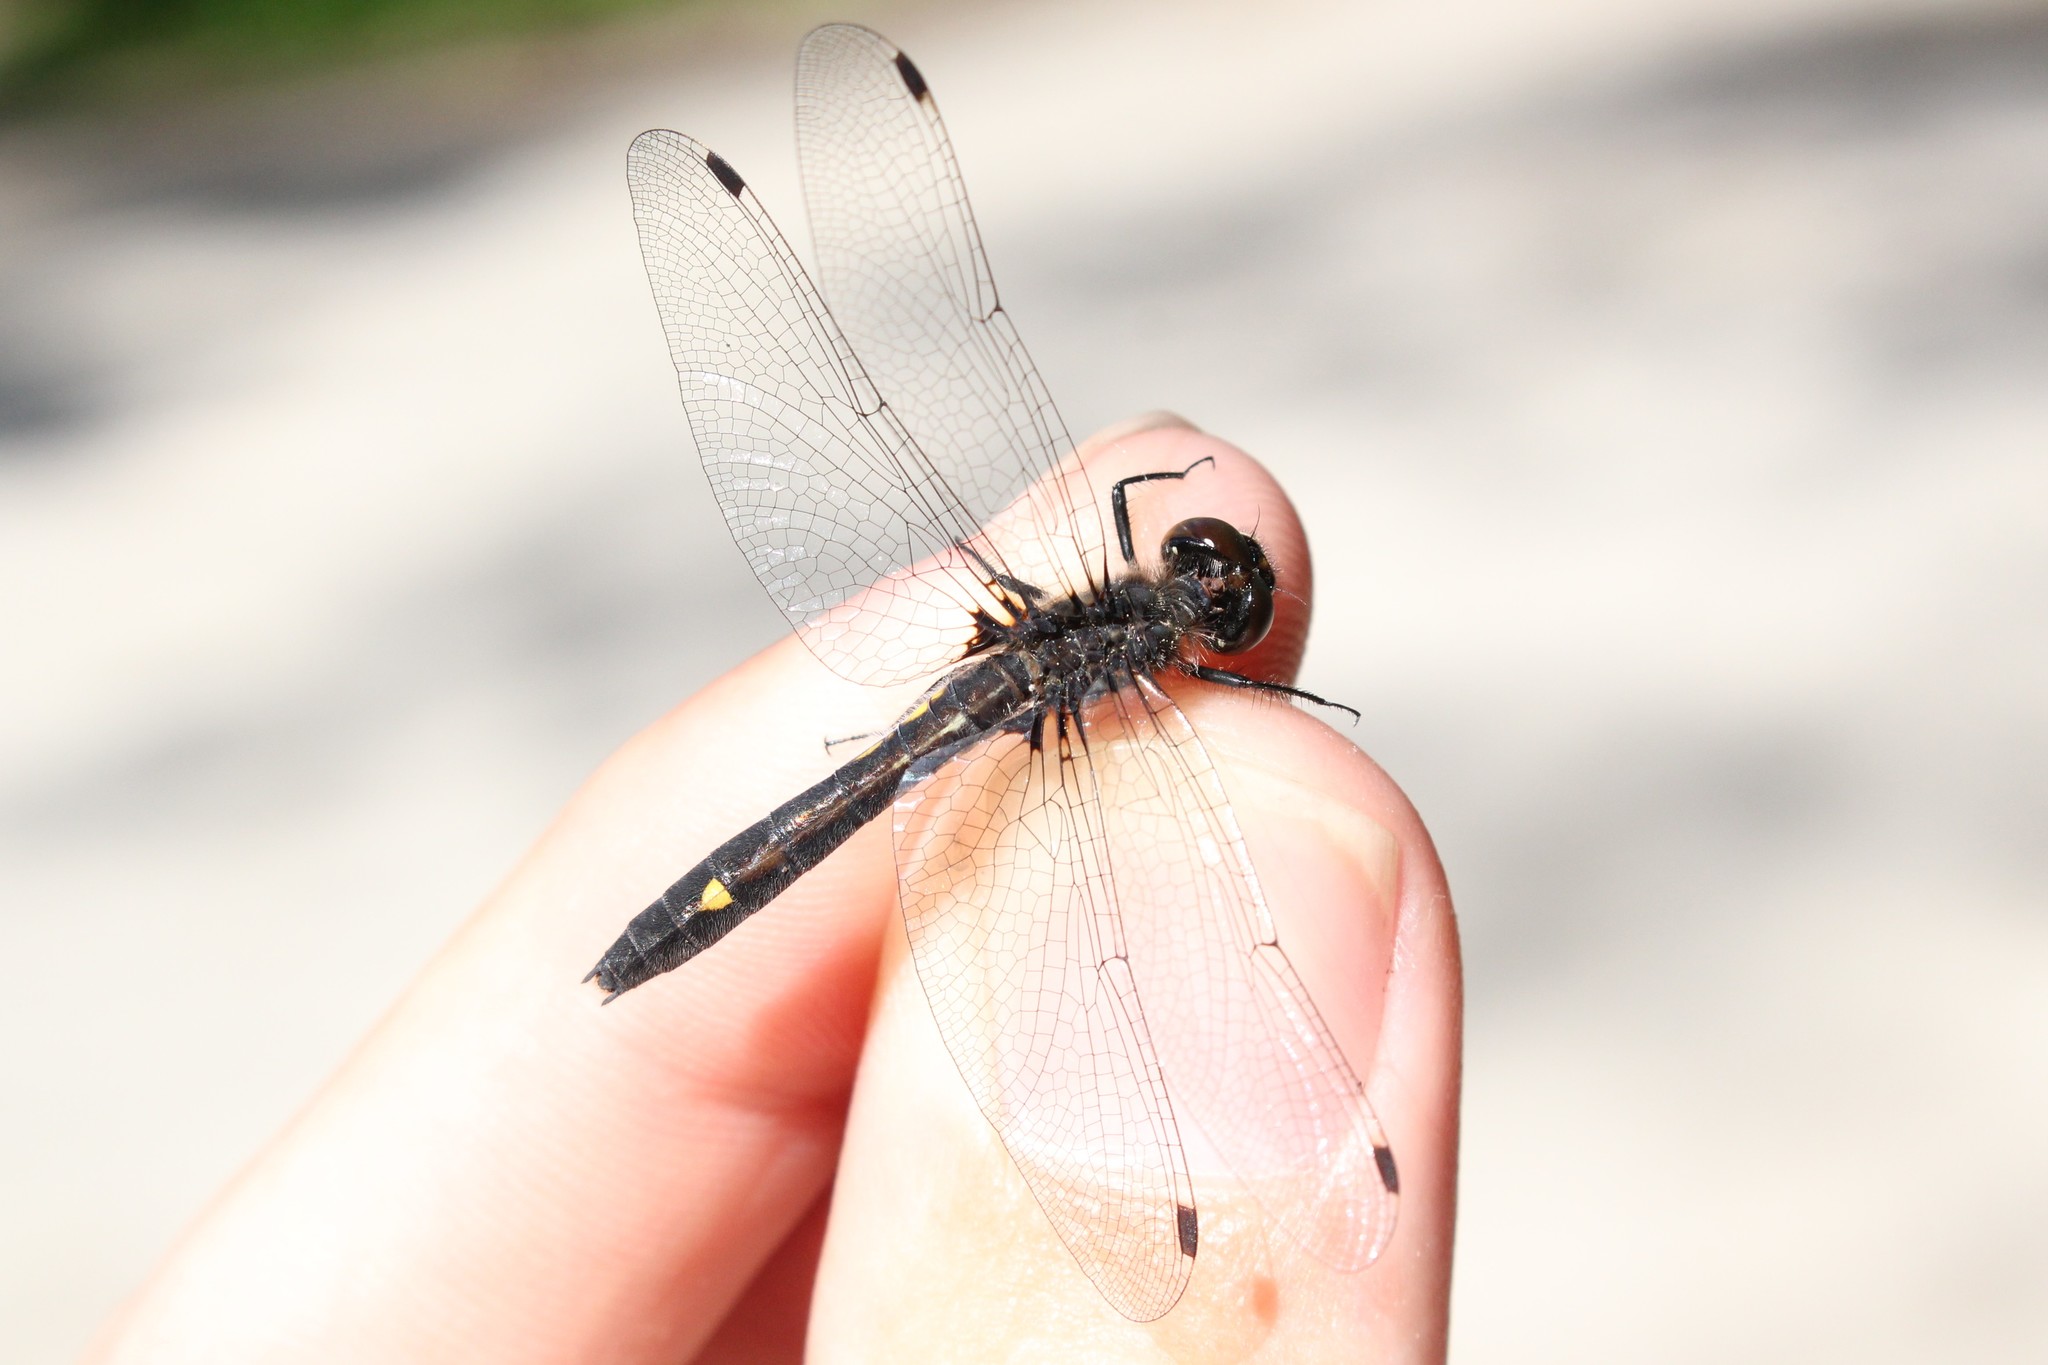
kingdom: Animalia
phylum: Arthropoda
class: Insecta
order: Odonata
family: Libellulidae
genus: Leucorrhinia
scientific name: Leucorrhinia intacta
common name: Dot-tailed whiteface
